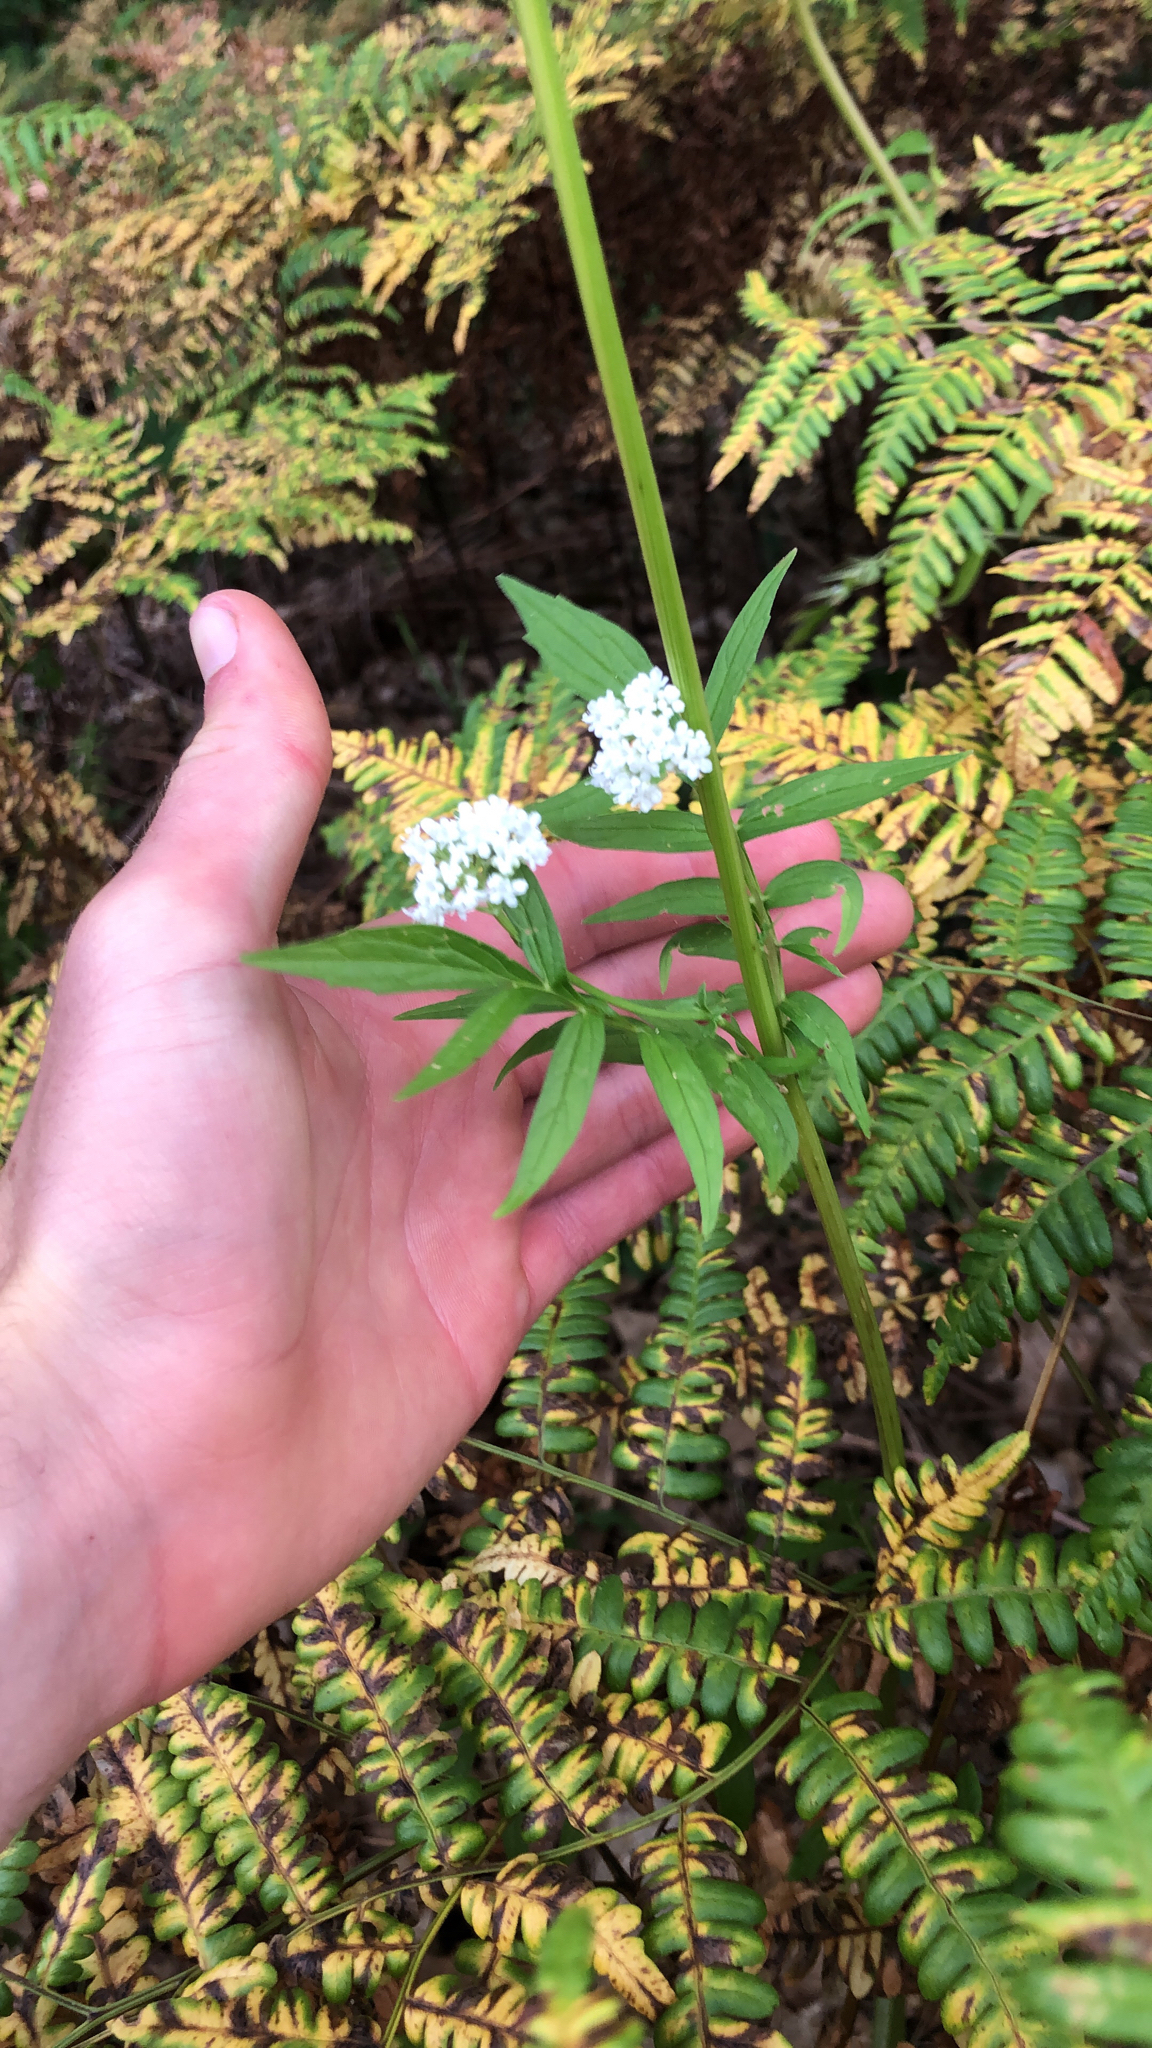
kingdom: Plantae
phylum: Tracheophyta
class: Magnoliopsida
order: Dipsacales
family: Caprifoliaceae
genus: Valeriana
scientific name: Valeriana officinalis
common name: Common valerian
